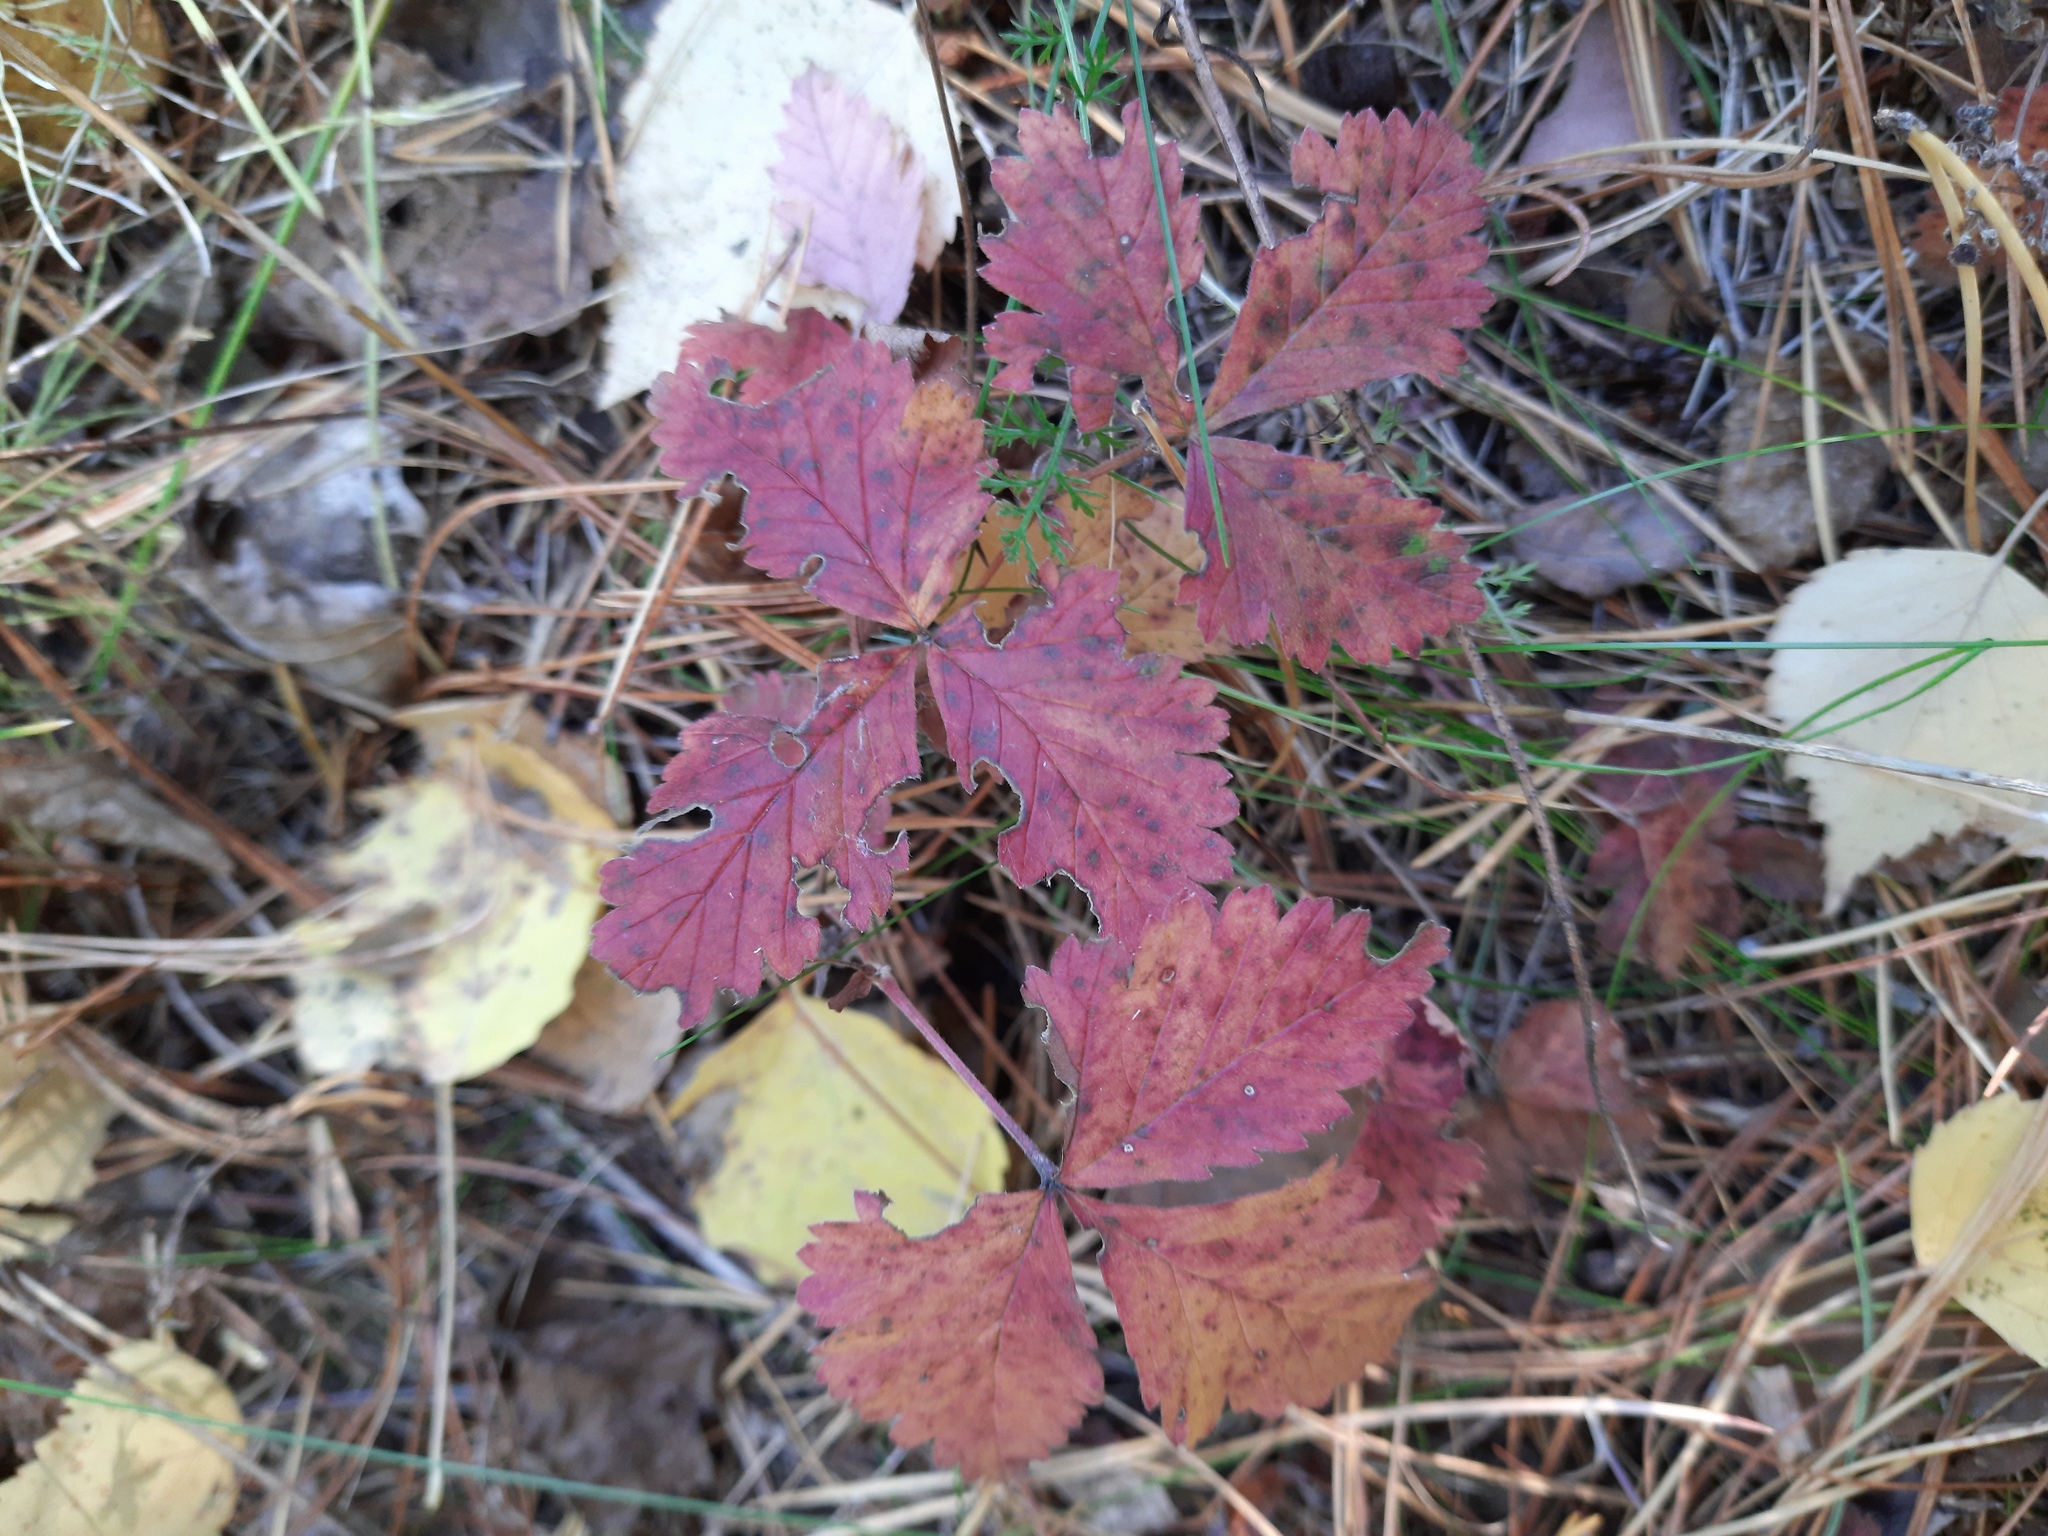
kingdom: Plantae
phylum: Tracheophyta
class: Magnoliopsida
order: Rosales
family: Rosaceae
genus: Rubus
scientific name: Rubus saxatilis
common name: Stone bramble
